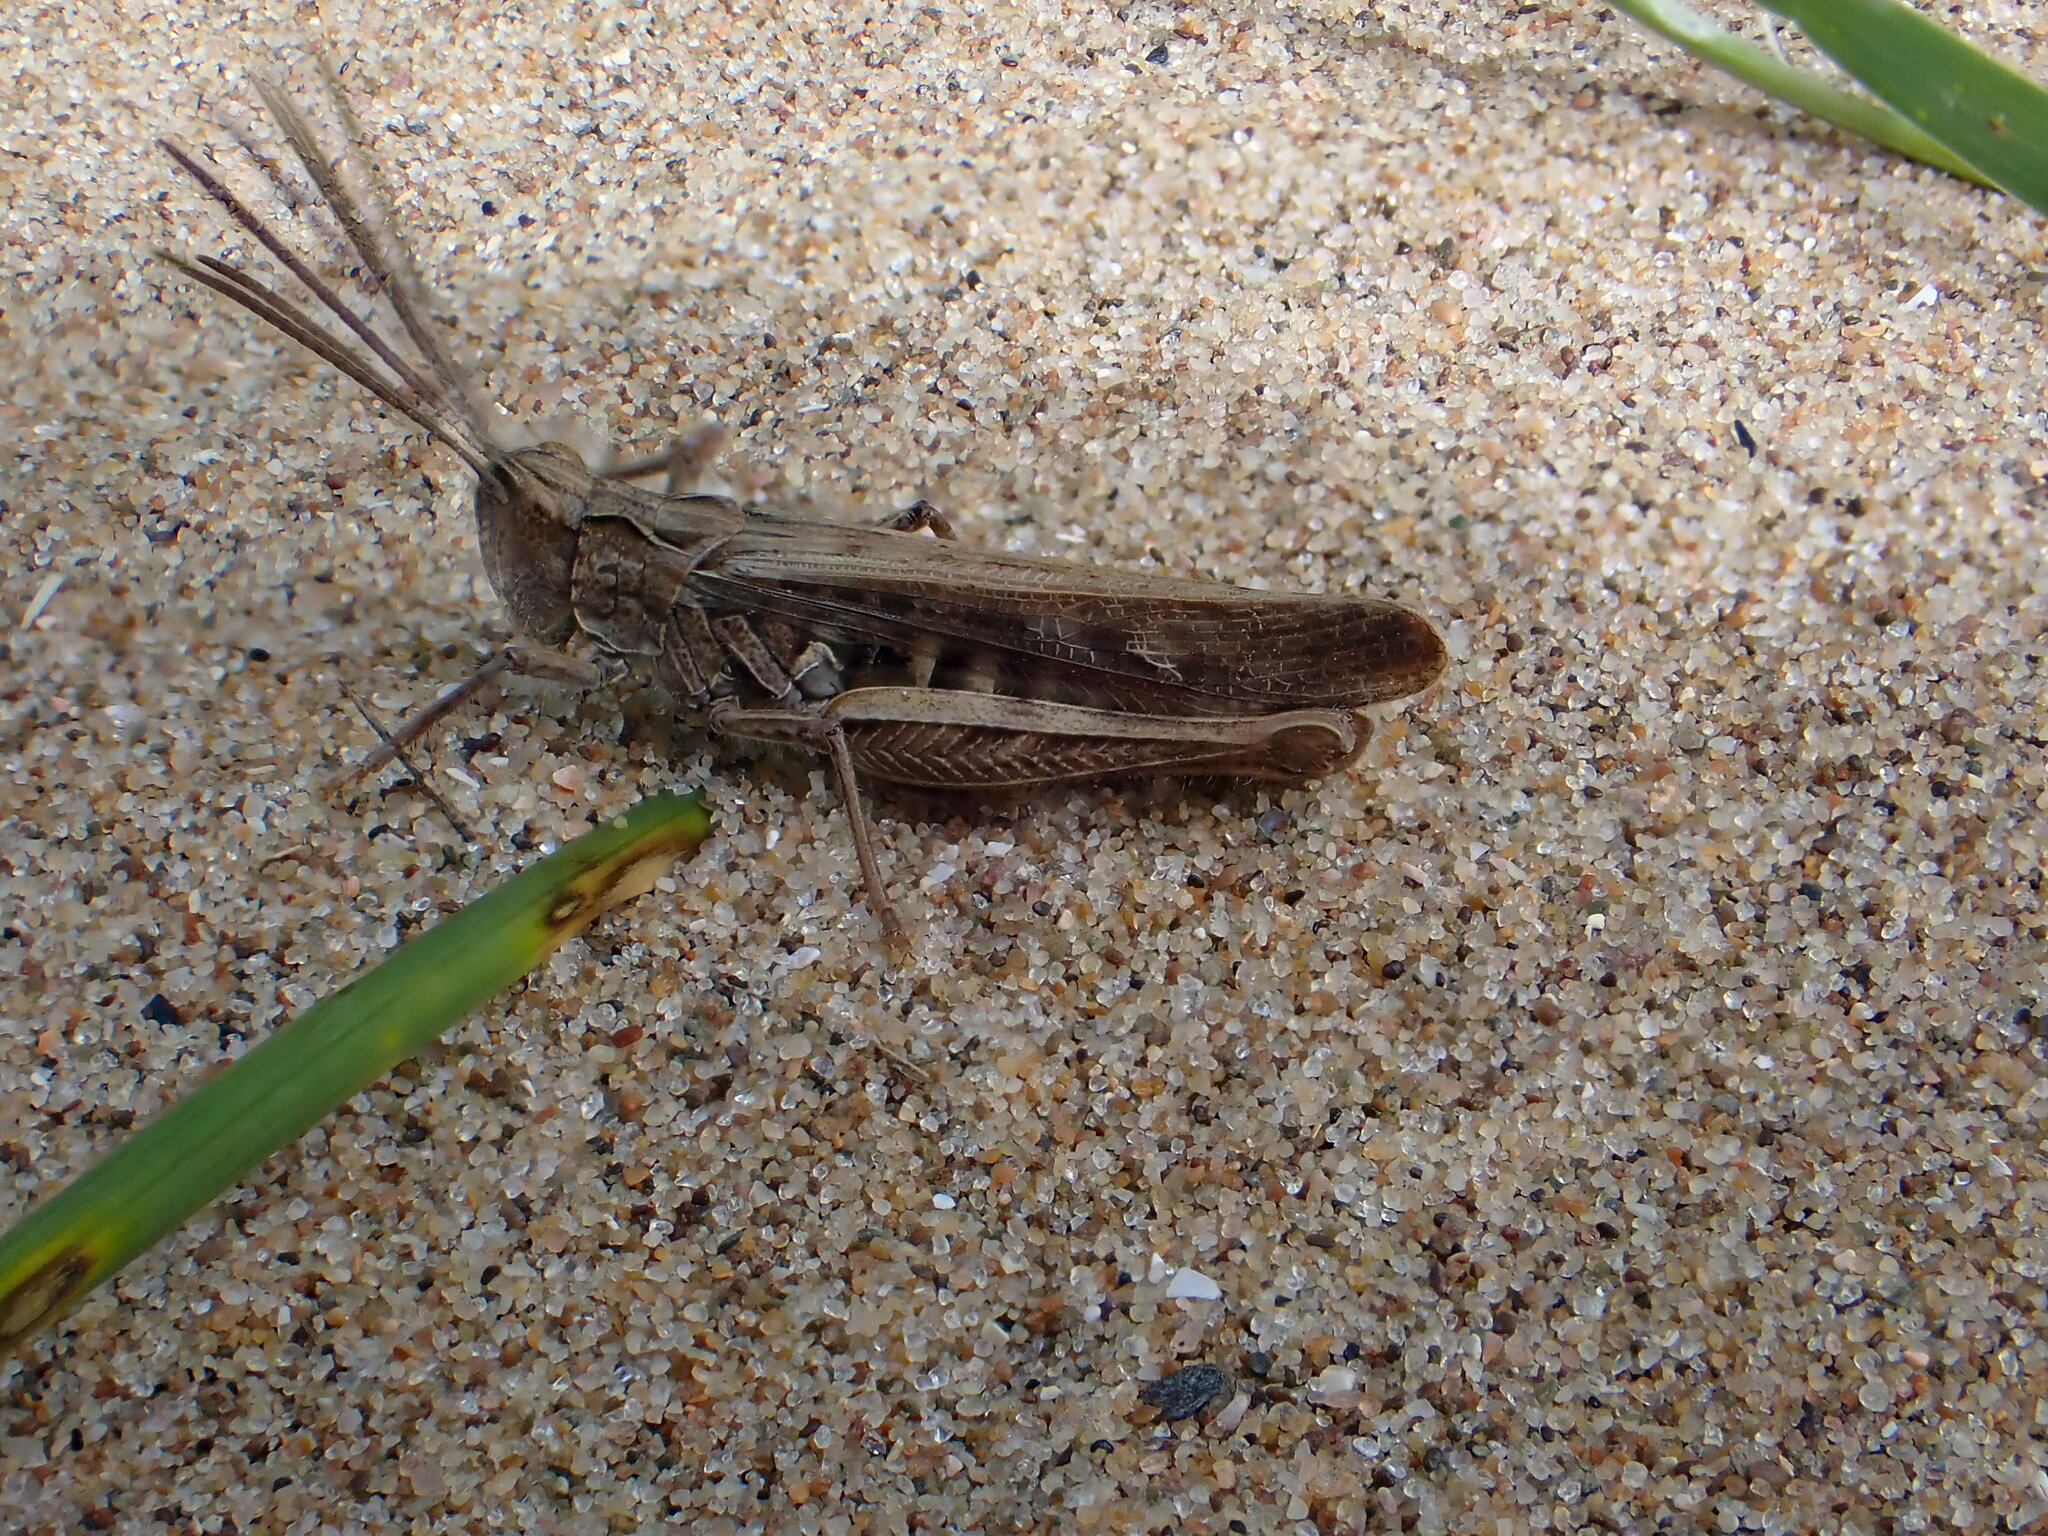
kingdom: Animalia
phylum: Arthropoda
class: Insecta
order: Orthoptera
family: Acrididae
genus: Chorthippus
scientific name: Chorthippus brunneus
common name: Field grasshopper
